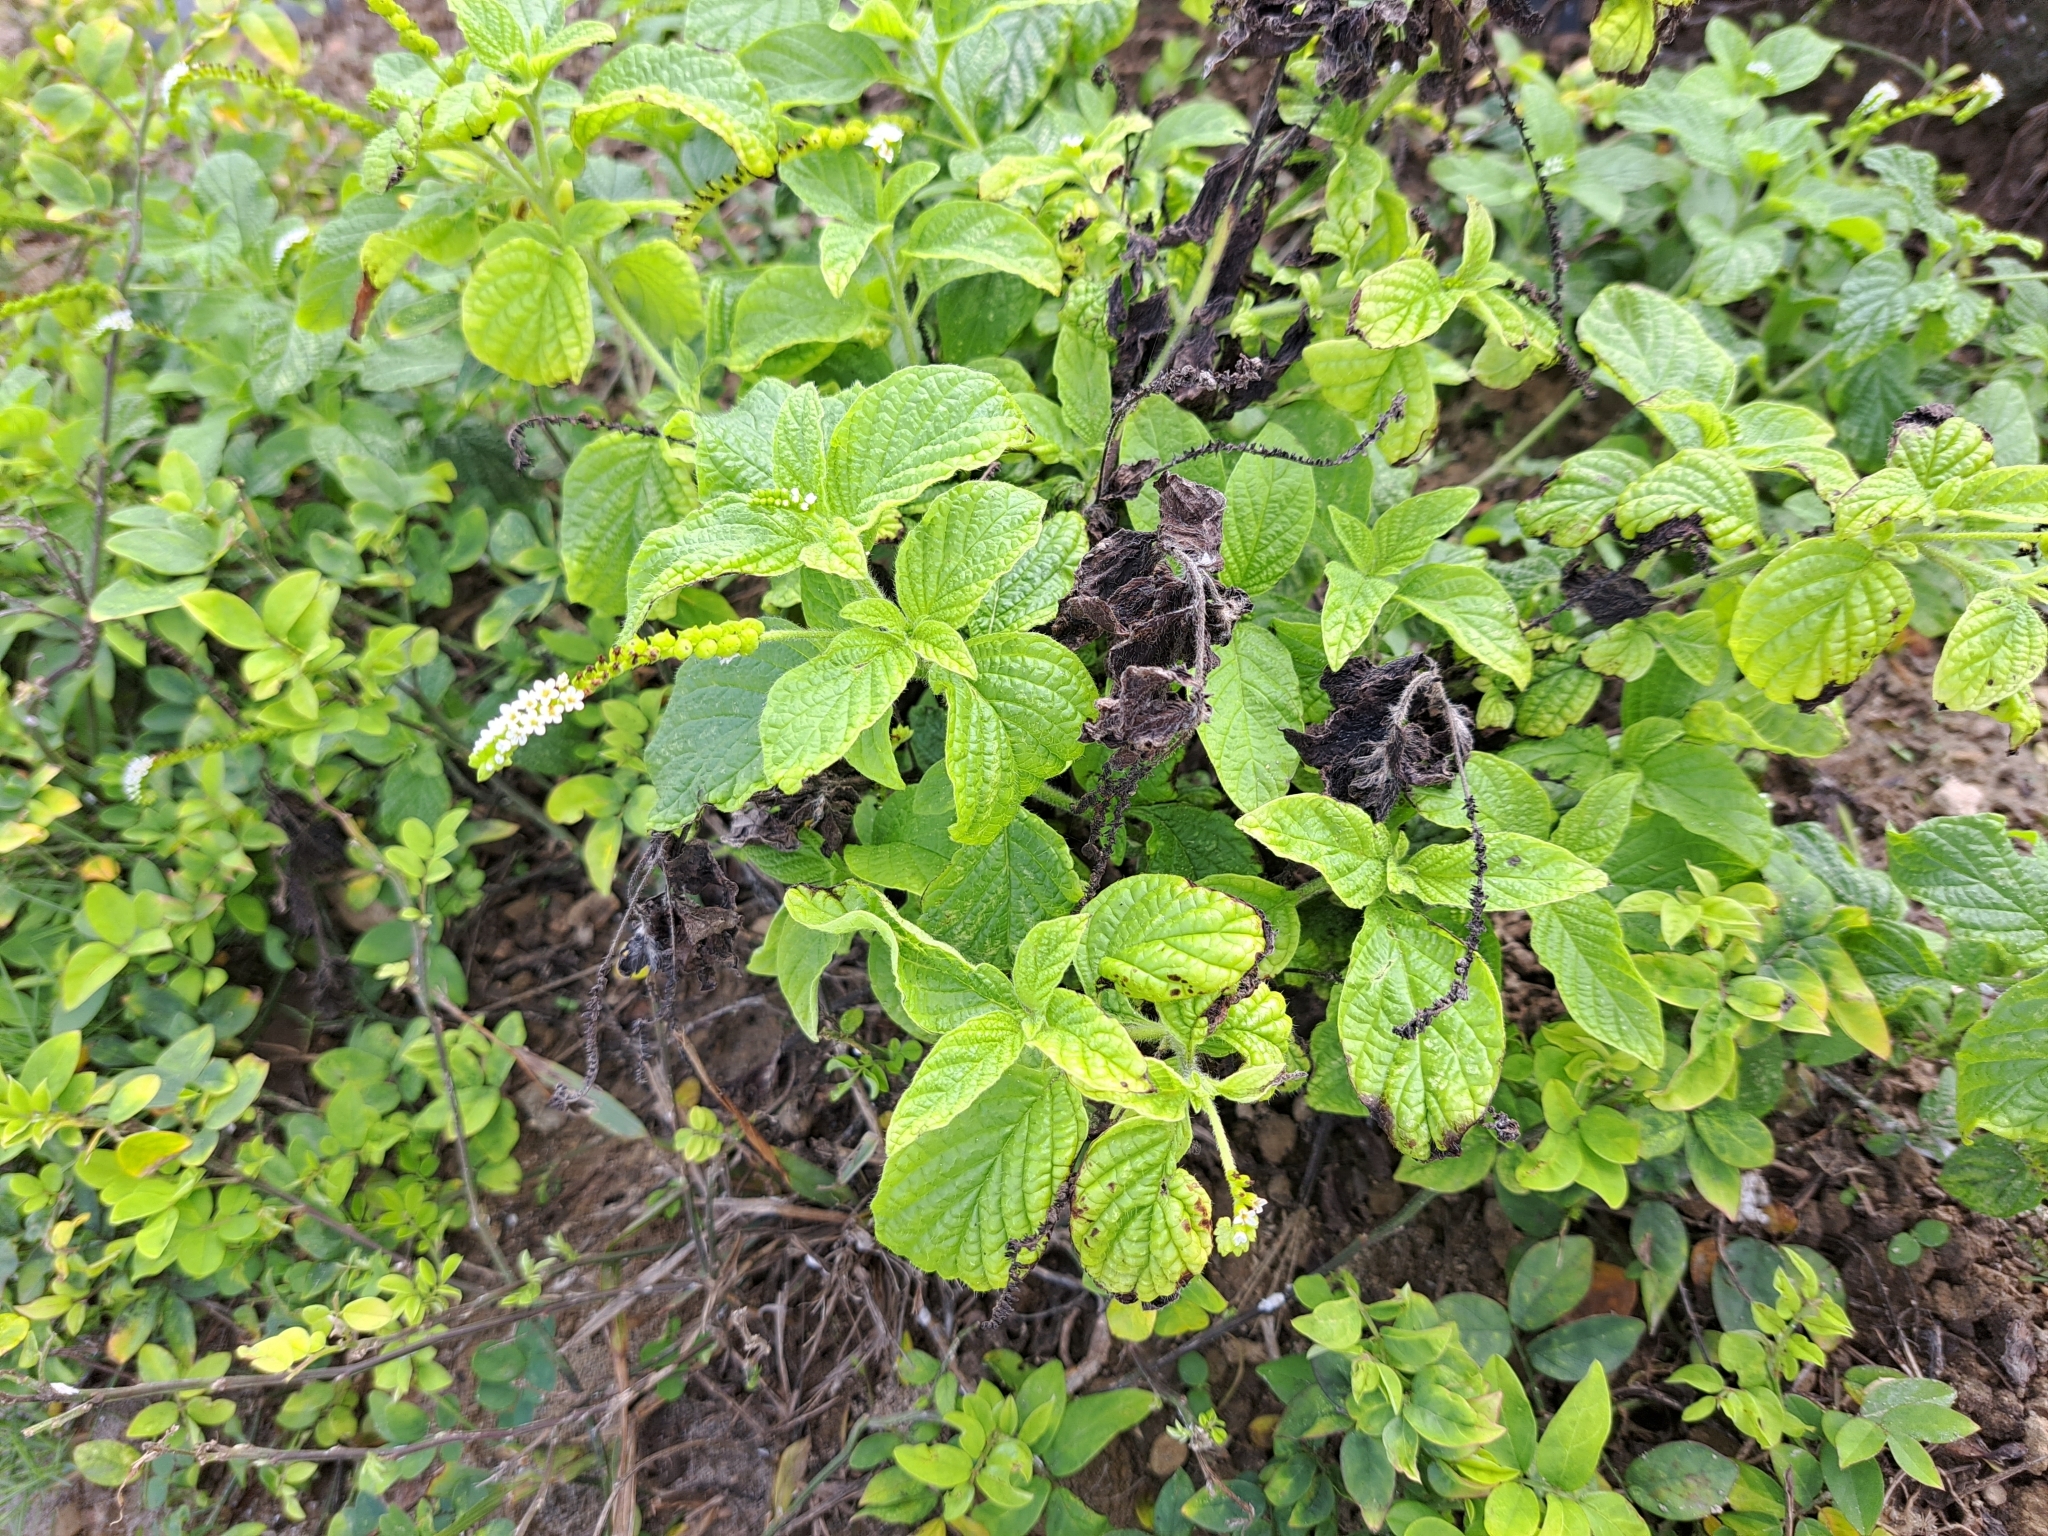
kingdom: Plantae
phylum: Tracheophyta
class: Magnoliopsida
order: Boraginales
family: Heliotropiaceae
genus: Heliotropium
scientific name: Heliotropium angiospermum
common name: Eye bright
